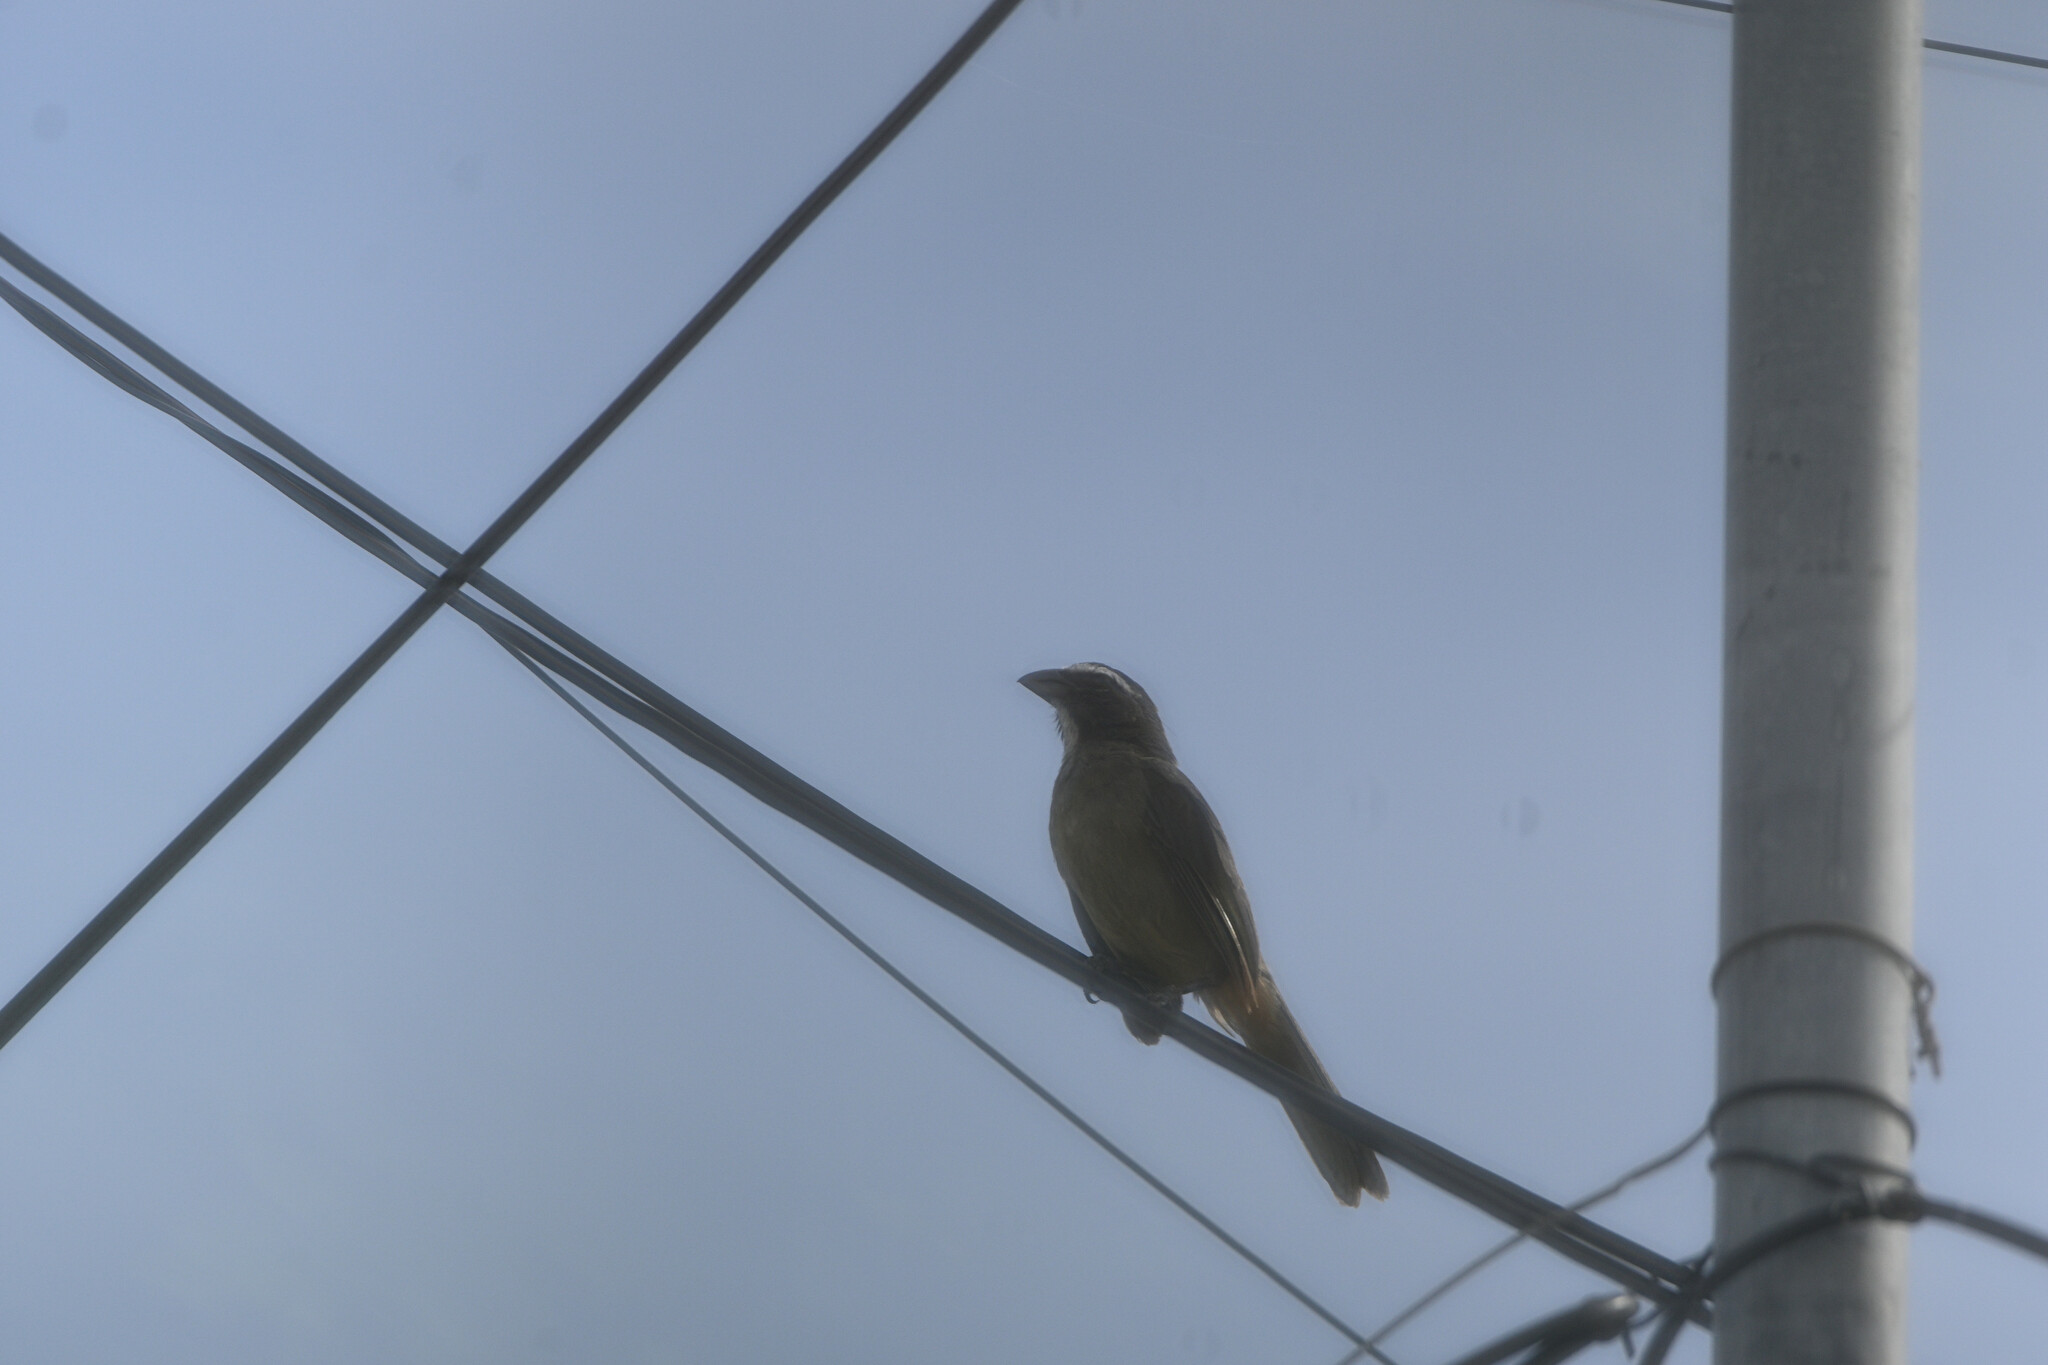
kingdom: Animalia
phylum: Chordata
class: Aves
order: Passeriformes
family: Thraupidae
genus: Saltator
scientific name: Saltator grandis
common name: Cinnamon-bellied saltator
